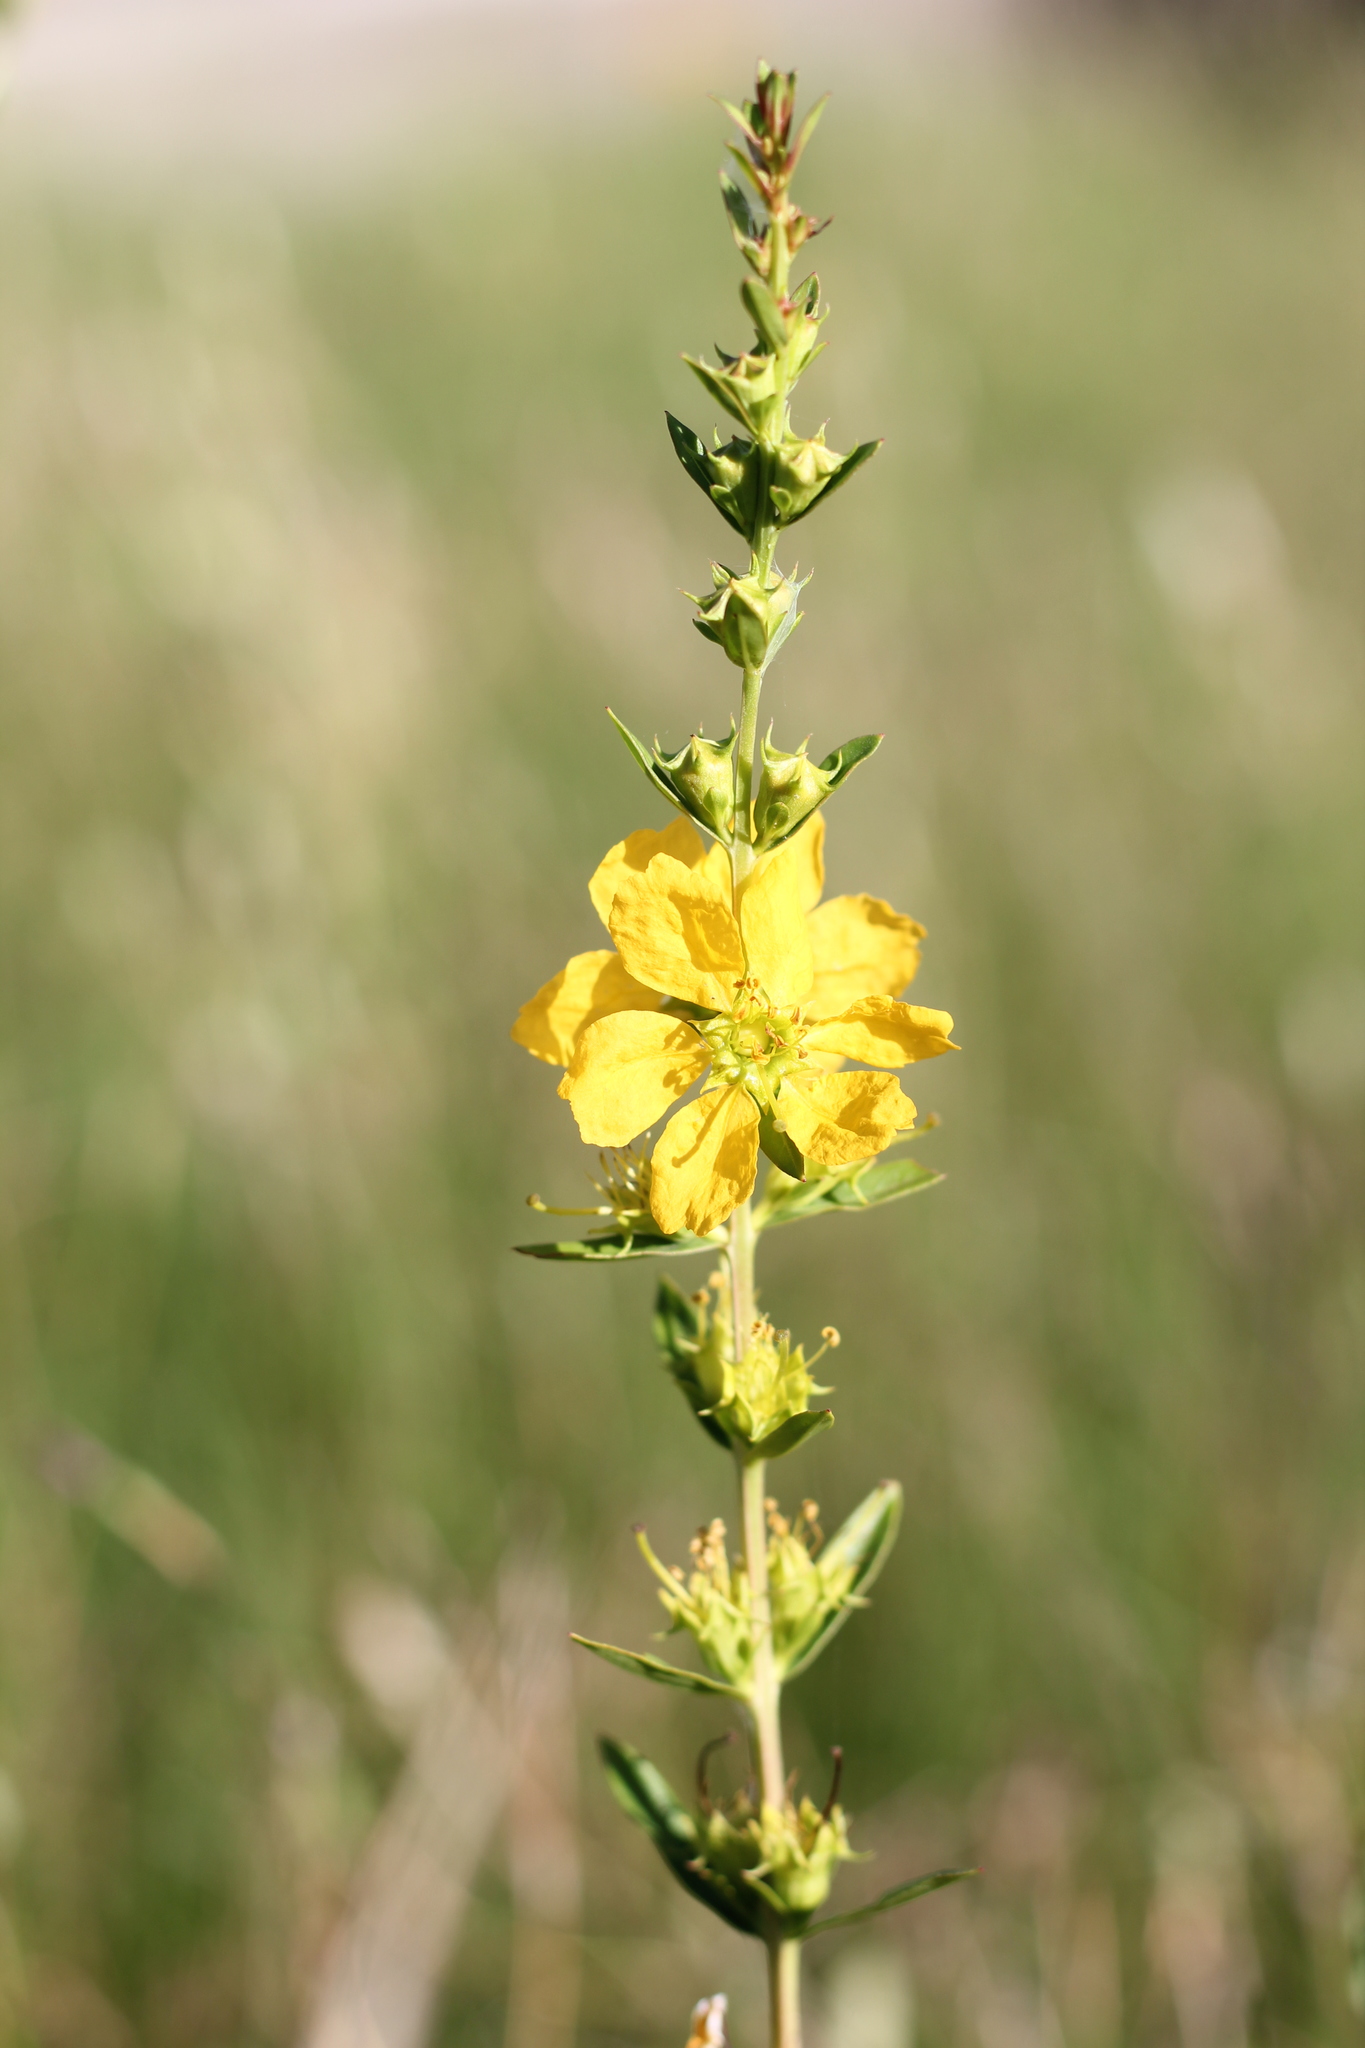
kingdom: Plantae
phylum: Tracheophyta
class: Magnoliopsida
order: Myrtales
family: Lythraceae
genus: Heimia
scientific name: Heimia salicifolia
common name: Willow-leaf heimia
